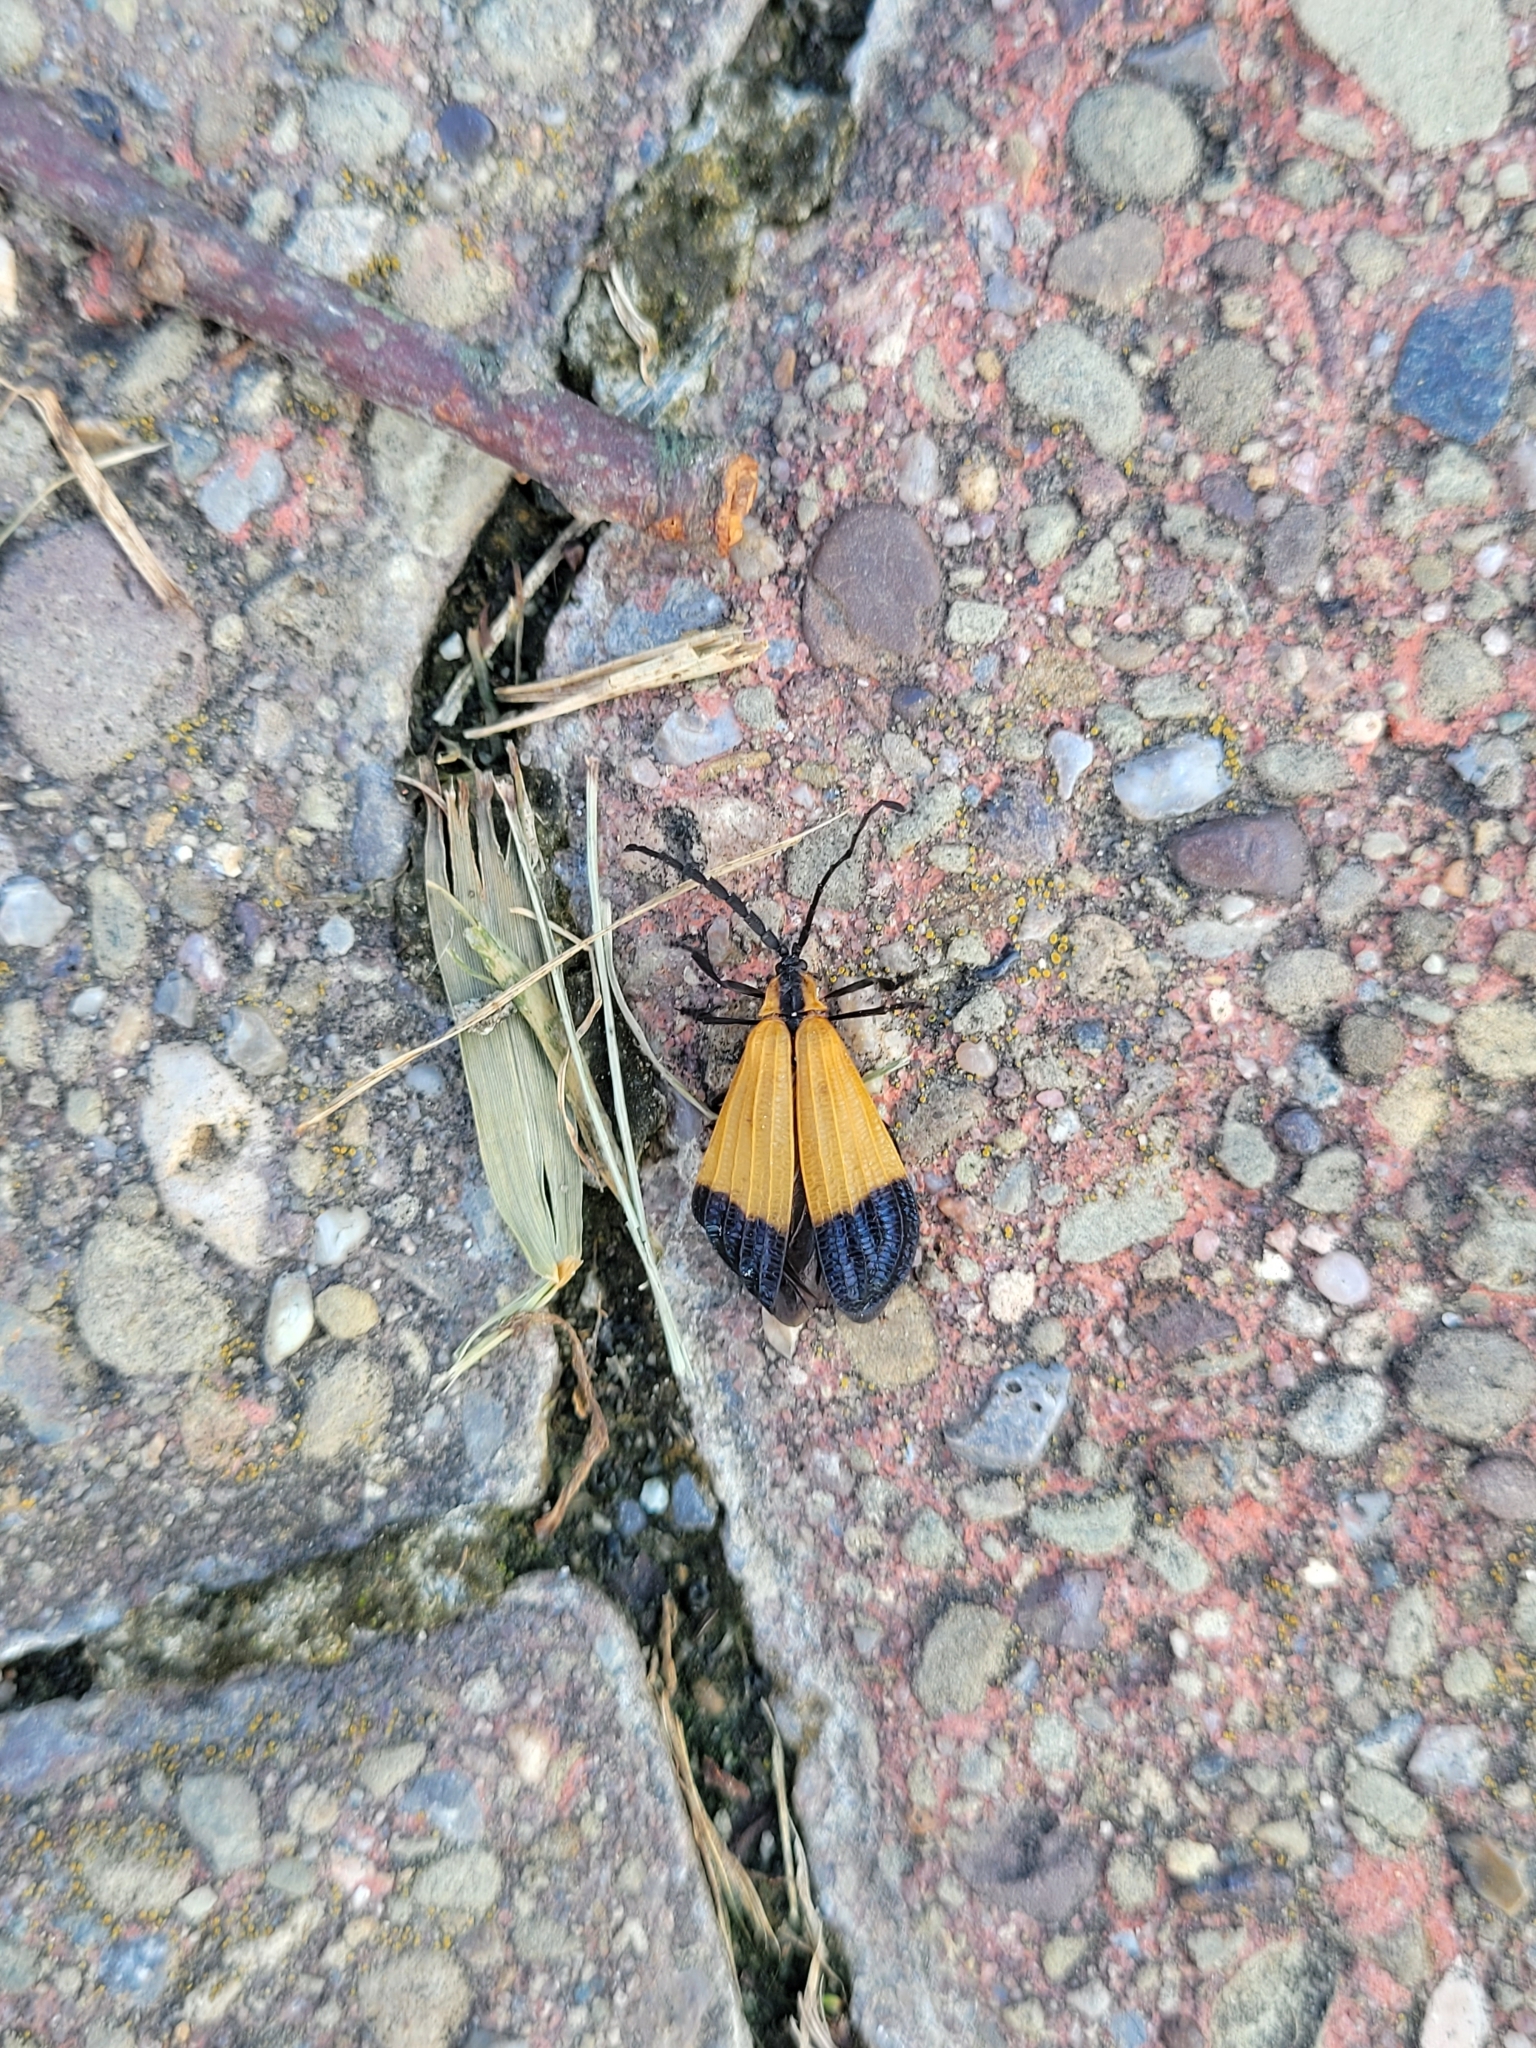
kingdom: Animalia
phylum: Arthropoda
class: Insecta
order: Coleoptera
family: Lycidae
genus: Calopteron
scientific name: Calopteron terminale
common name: End band net-winged beetle
